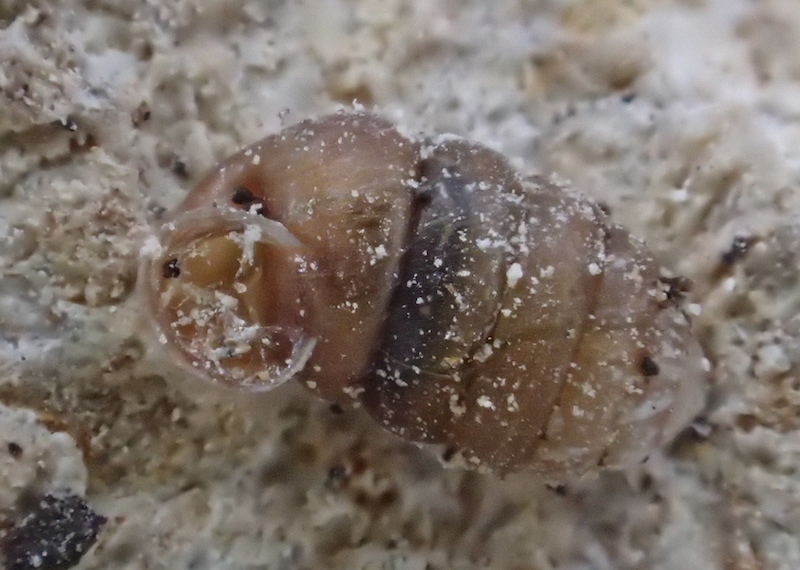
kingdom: Animalia
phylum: Mollusca
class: Gastropoda
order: Stylommatophora
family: Pupillidae
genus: Pupilla
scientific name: Pupilla muscorum
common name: Moss chrysalis snail
